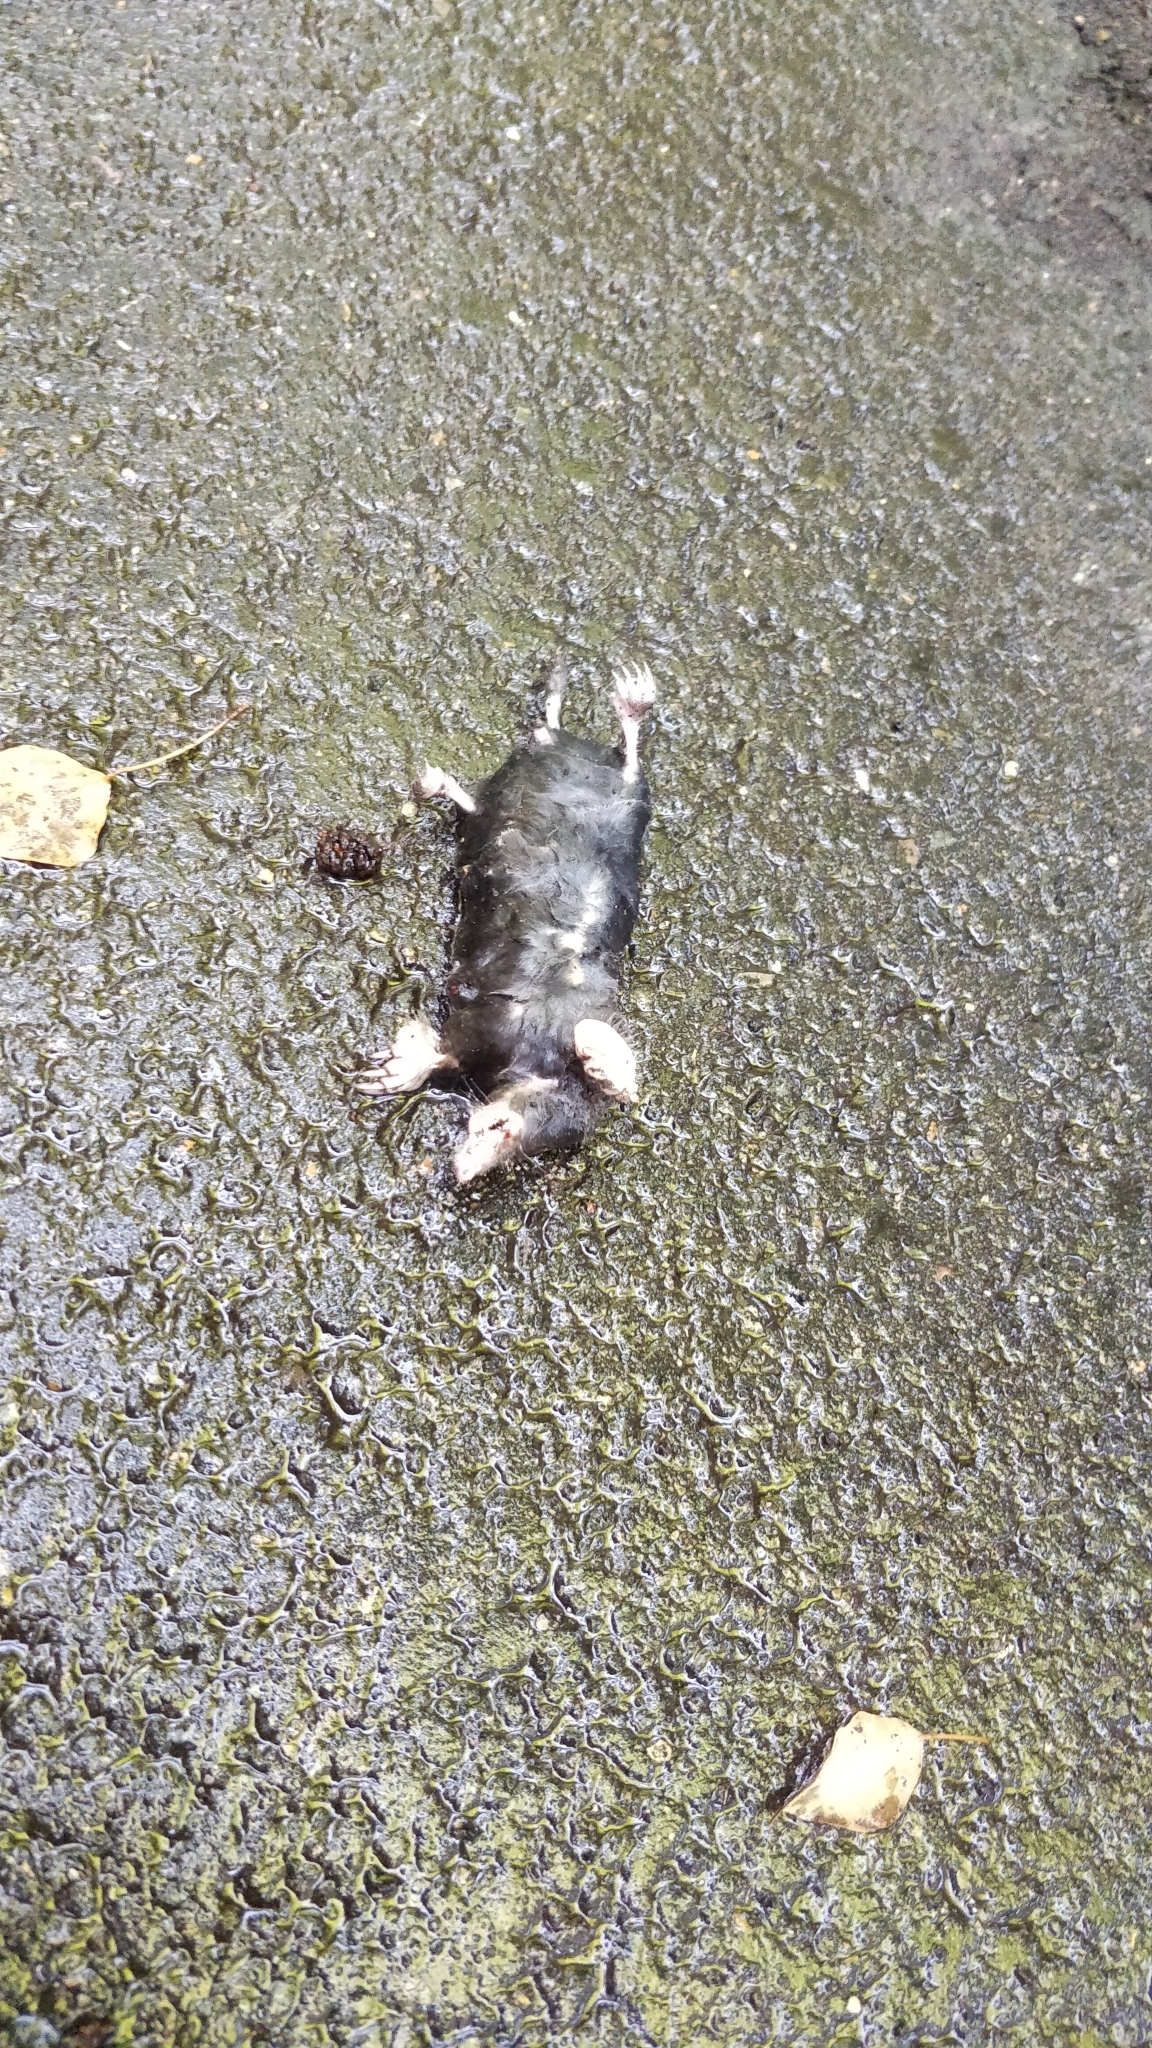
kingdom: Animalia
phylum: Chordata
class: Mammalia
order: Soricomorpha
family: Talpidae
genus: Talpa
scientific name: Talpa europaea
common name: European mole
